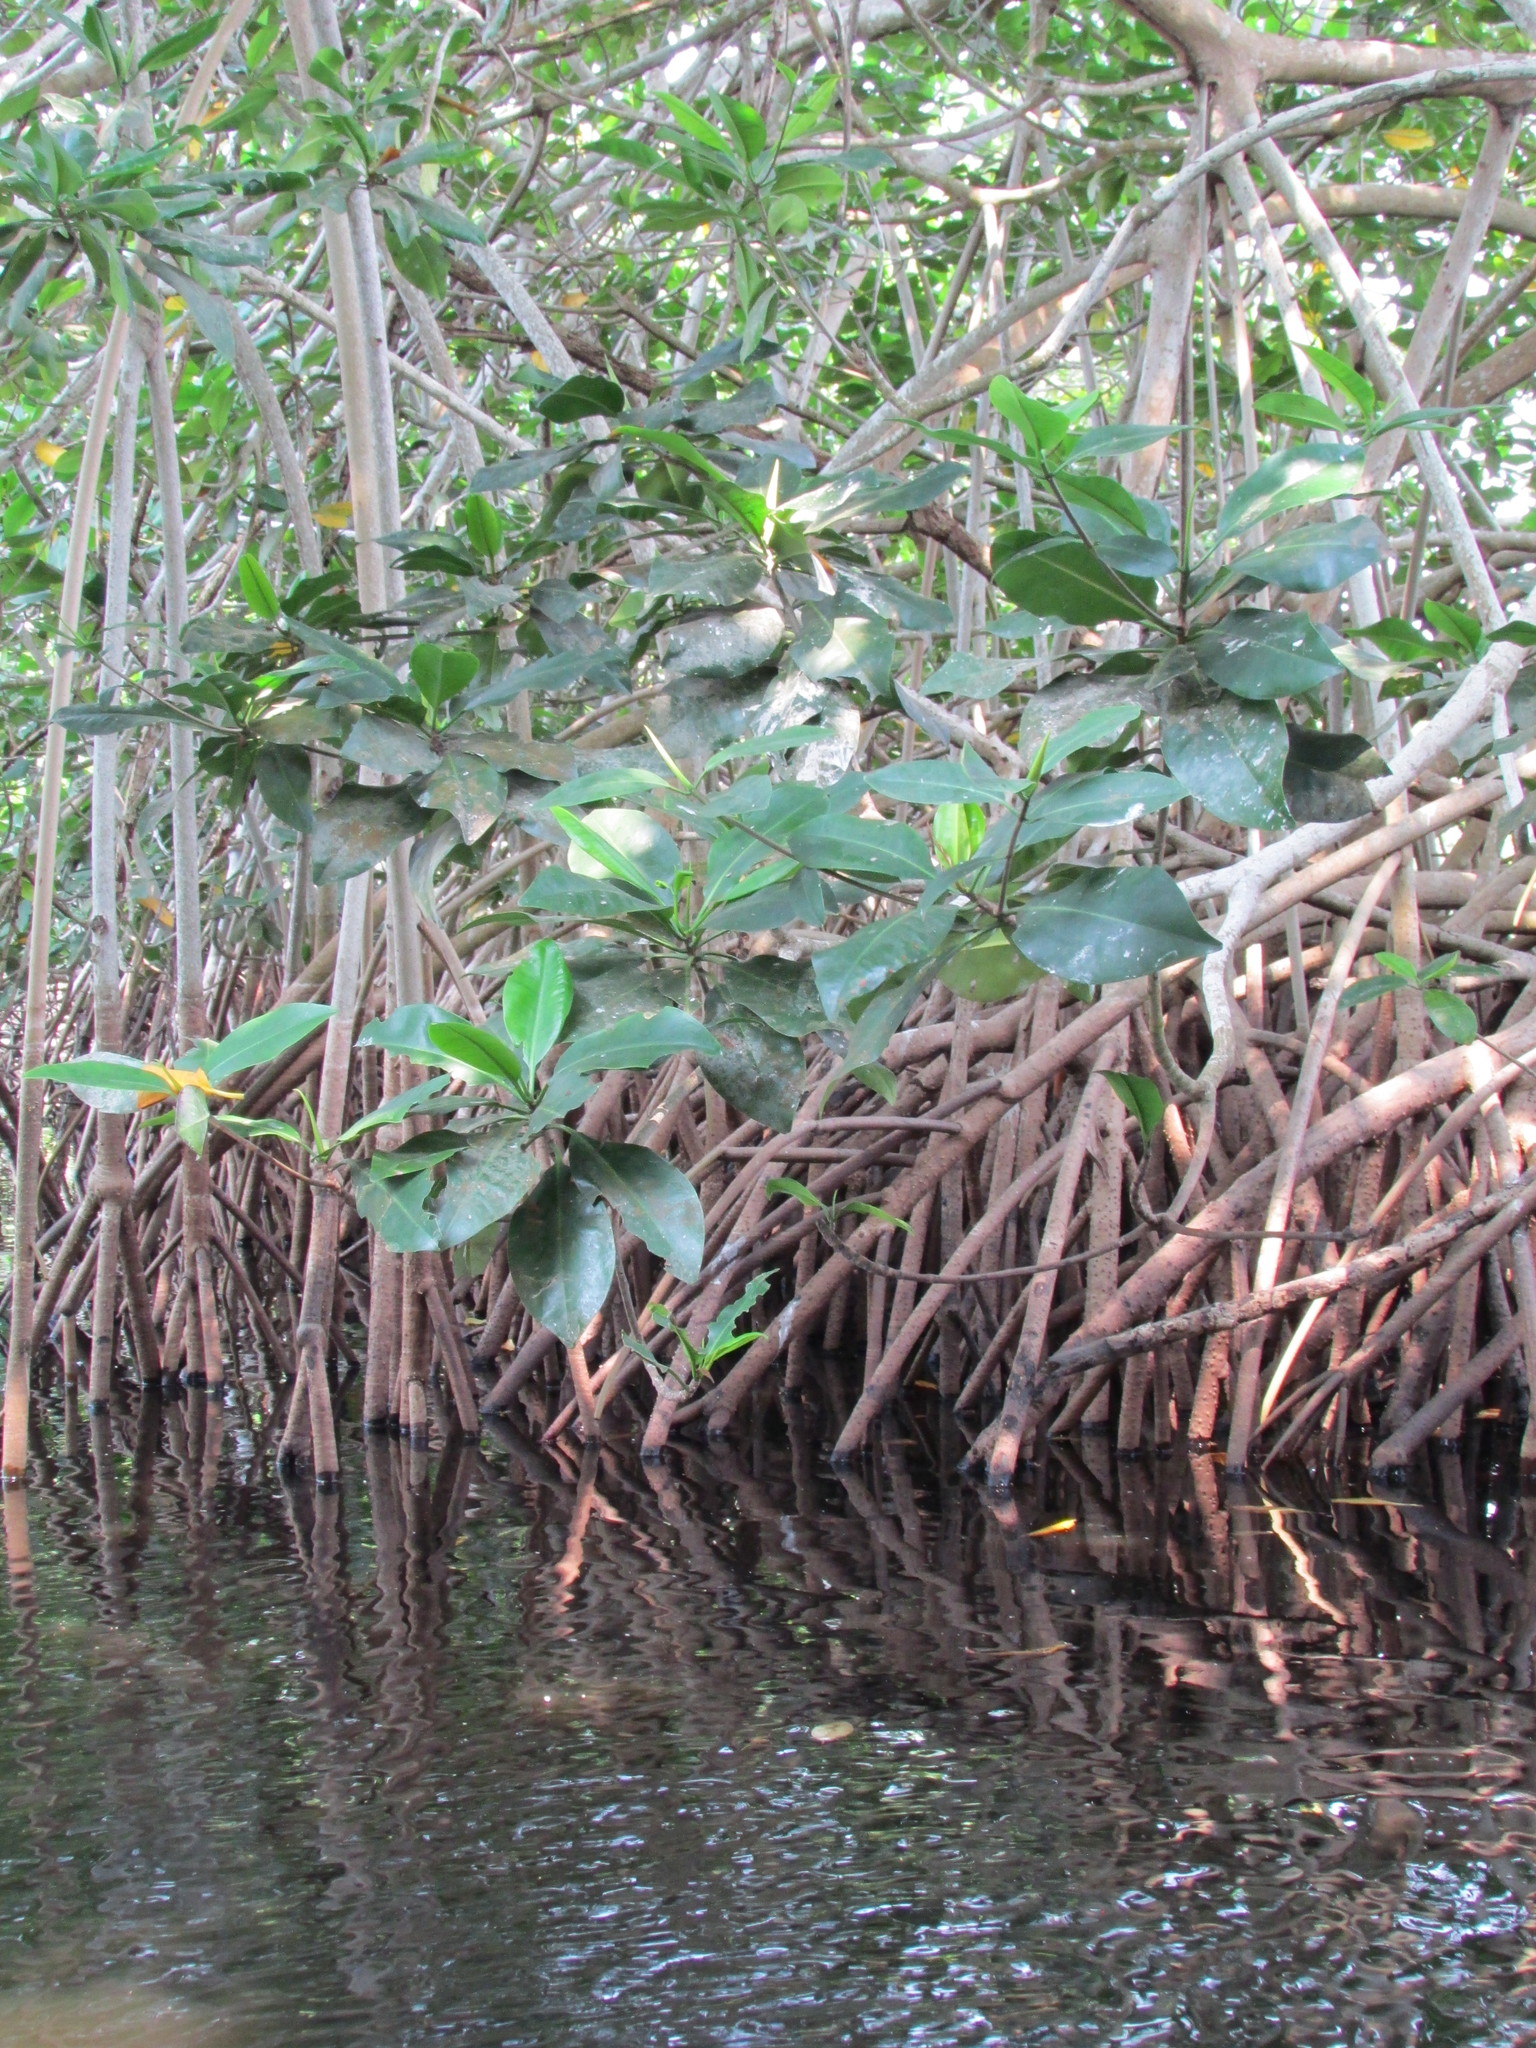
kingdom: Plantae
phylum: Tracheophyta
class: Magnoliopsida
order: Malpighiales
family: Rhizophoraceae
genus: Rhizophora
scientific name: Rhizophora mangle
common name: Red mangrove
